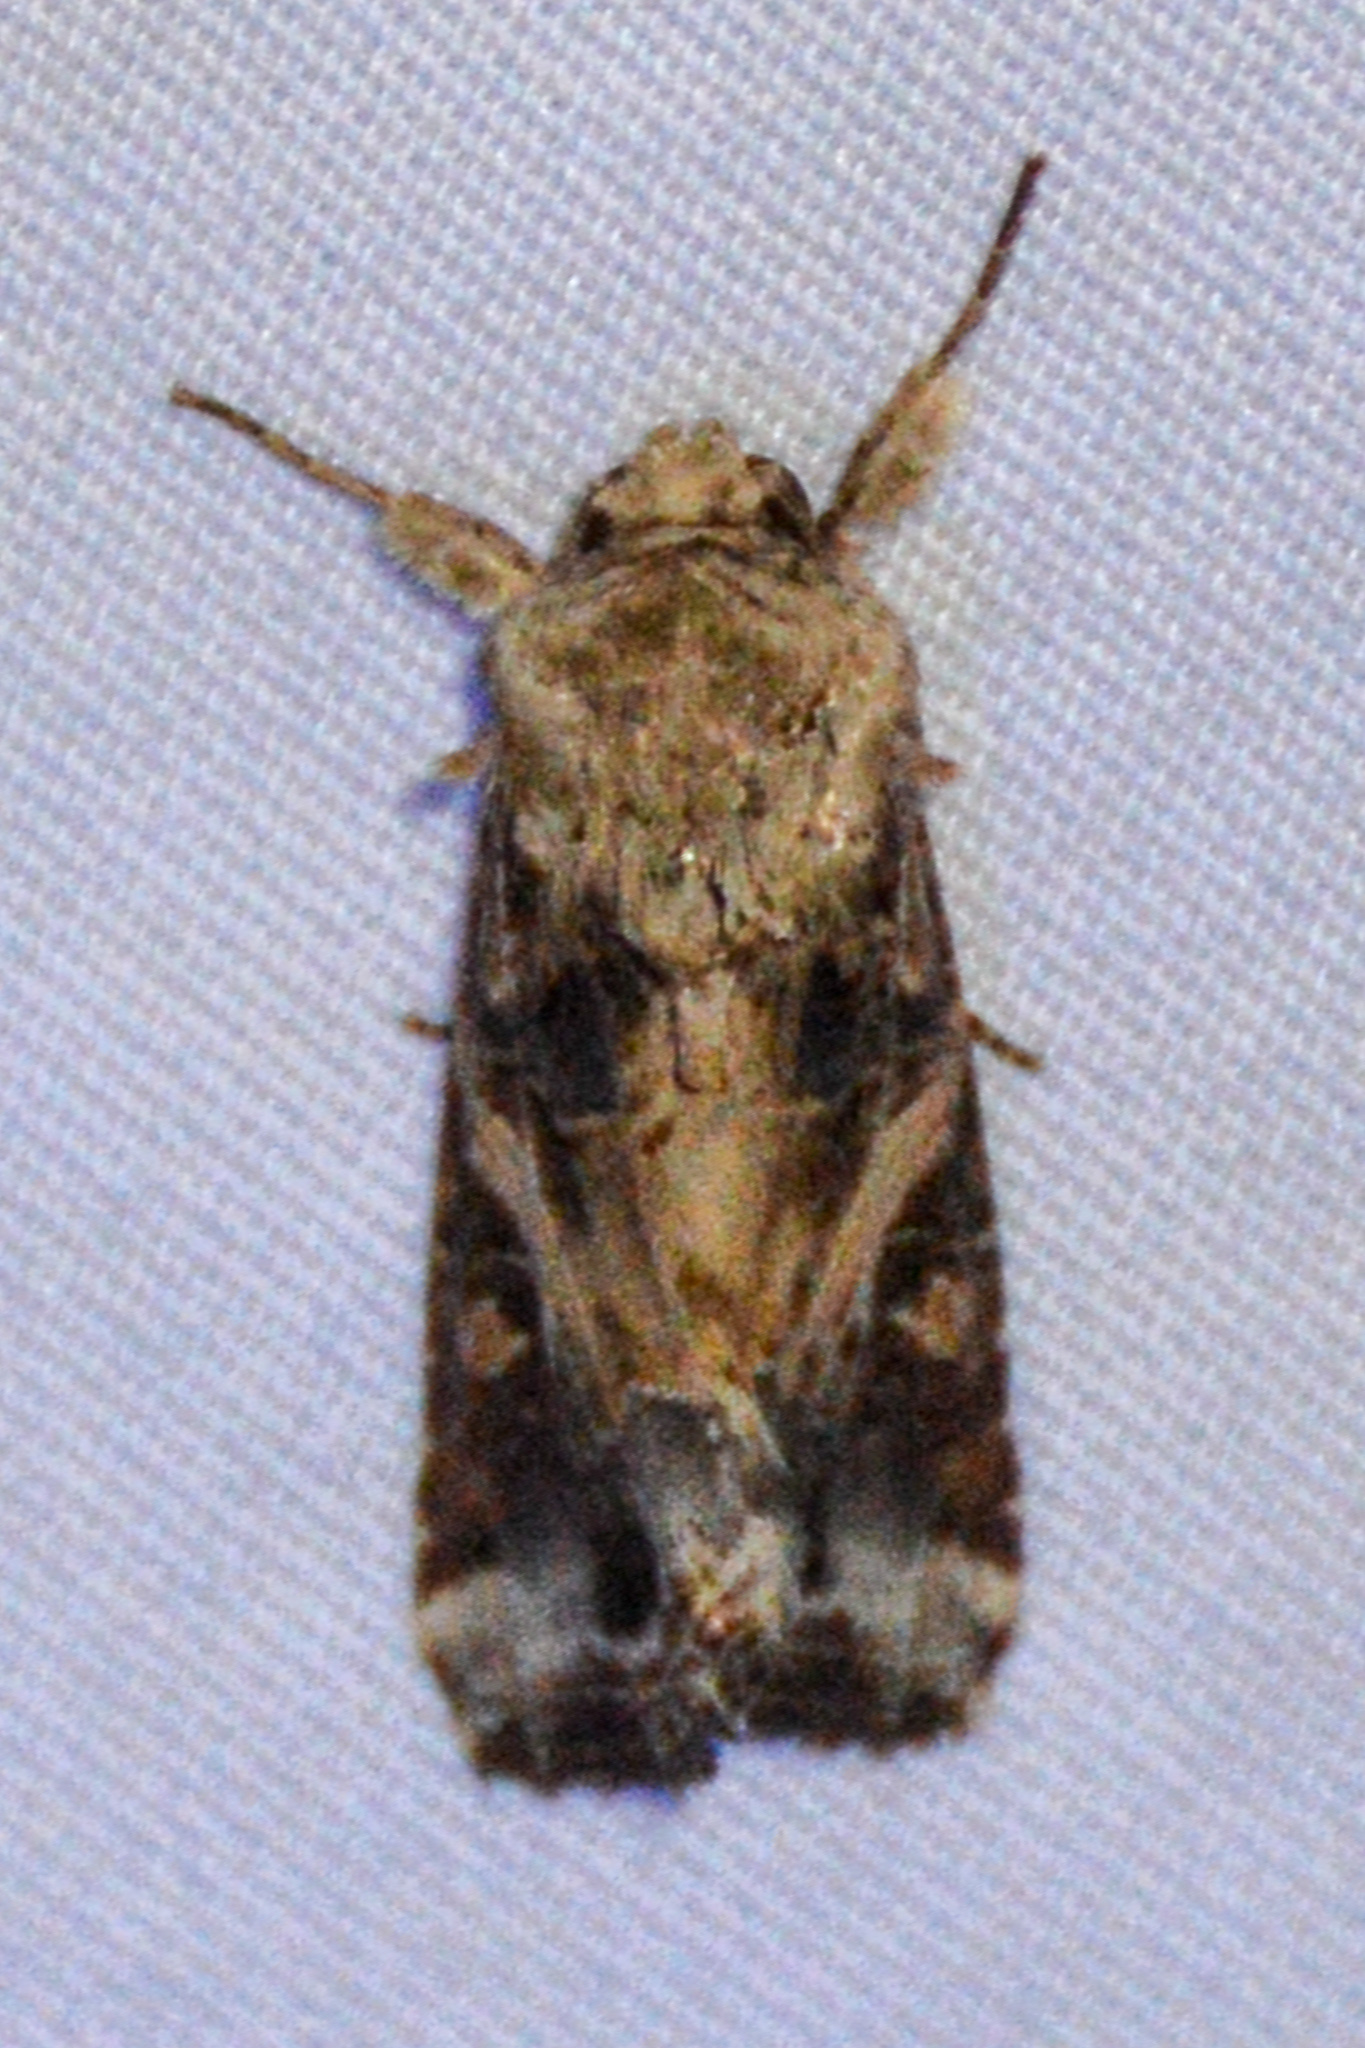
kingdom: Animalia
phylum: Arthropoda
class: Insecta
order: Lepidoptera
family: Noctuidae
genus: Spodoptera
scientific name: Spodoptera ornithogalli
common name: Yellow-striped armyworm
